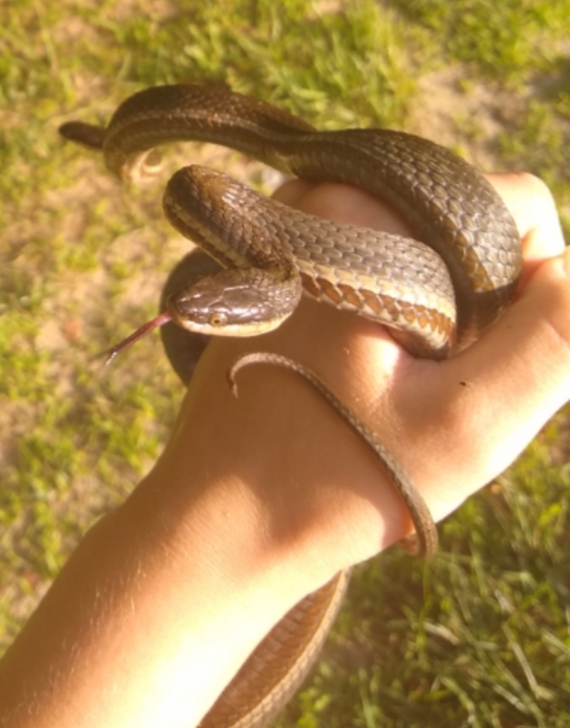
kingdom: Animalia
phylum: Chordata
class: Squamata
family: Colubridae
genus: Regina
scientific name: Regina septemvittata
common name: Queen snake
